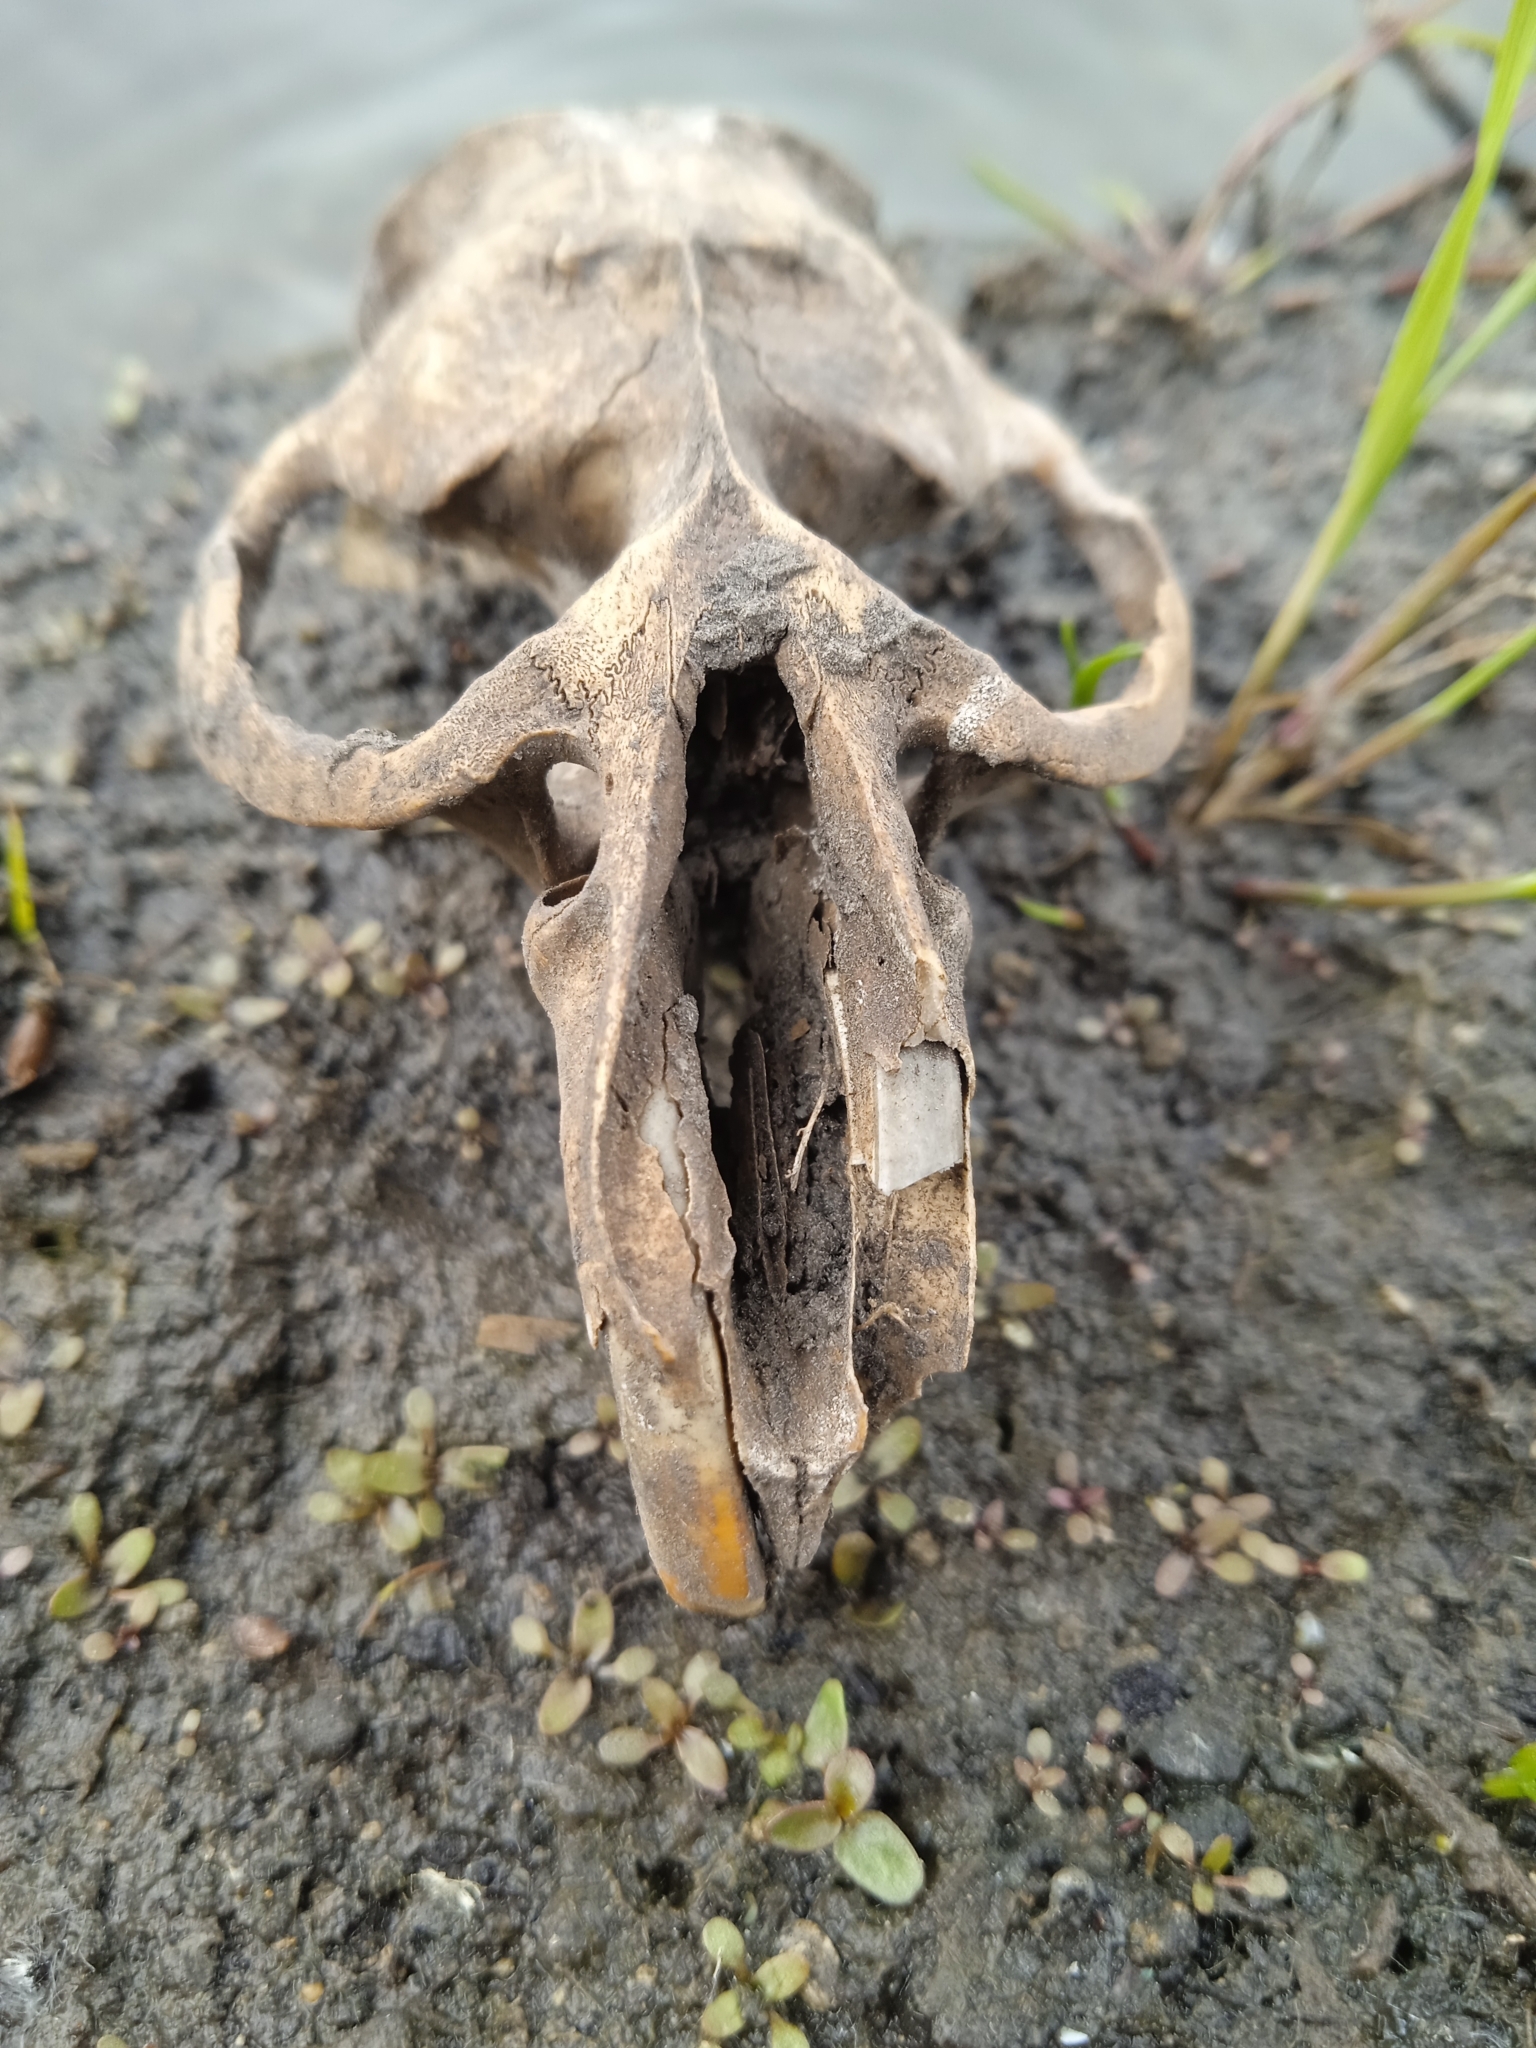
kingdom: Animalia
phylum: Chordata
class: Mammalia
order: Rodentia
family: Cricetidae
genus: Ondatra
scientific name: Ondatra zibethicus
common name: Muskrat
